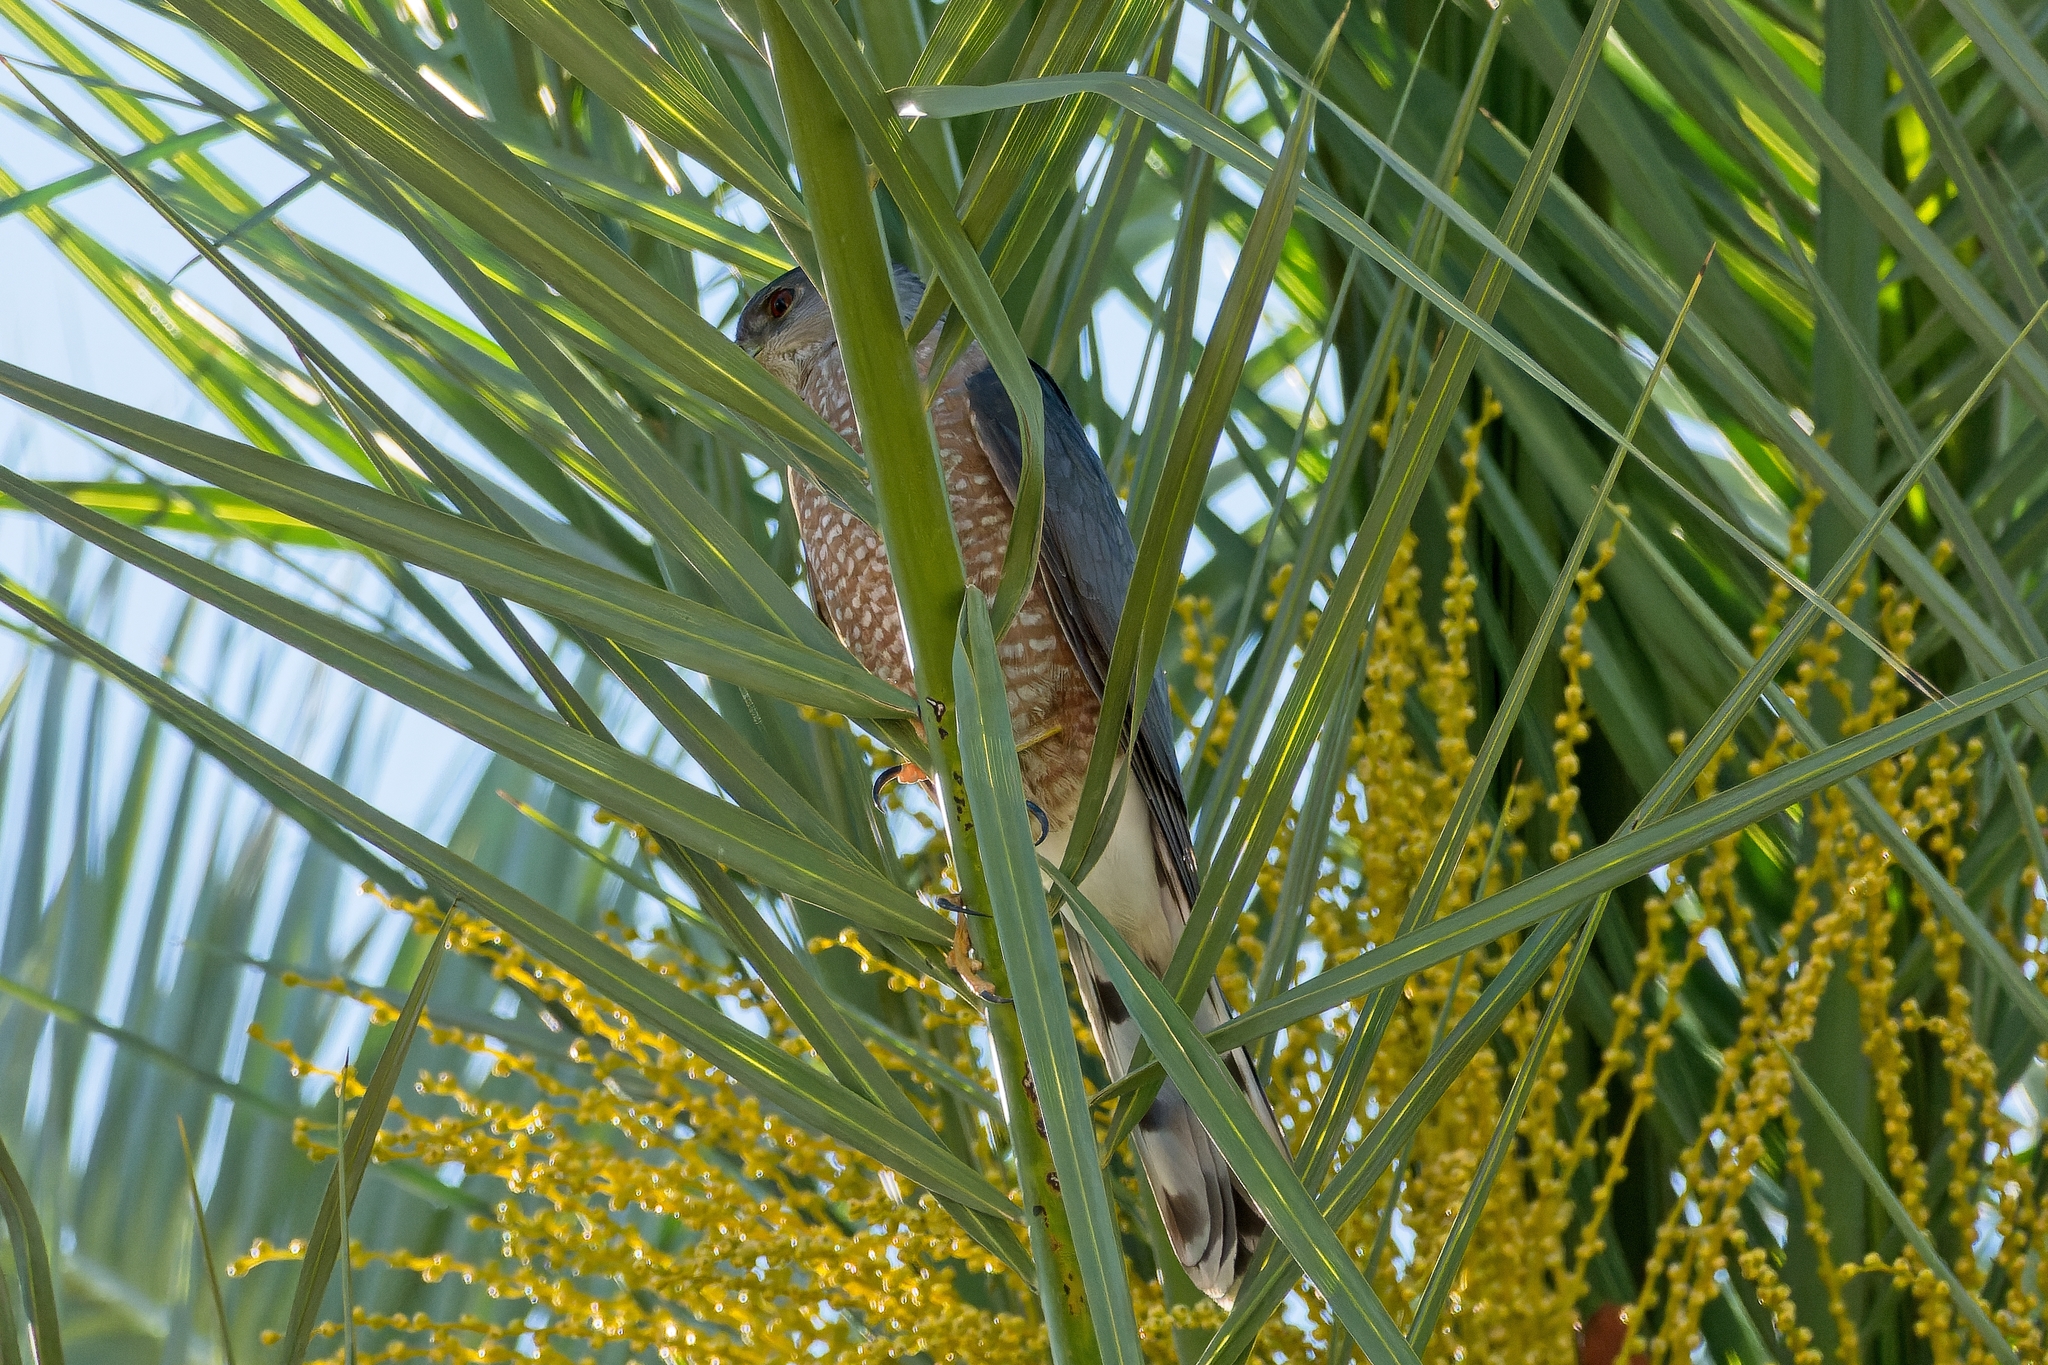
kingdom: Animalia
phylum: Chordata
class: Aves
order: Accipitriformes
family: Accipitridae
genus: Accipiter
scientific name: Accipiter cooperii
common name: Cooper's hawk
